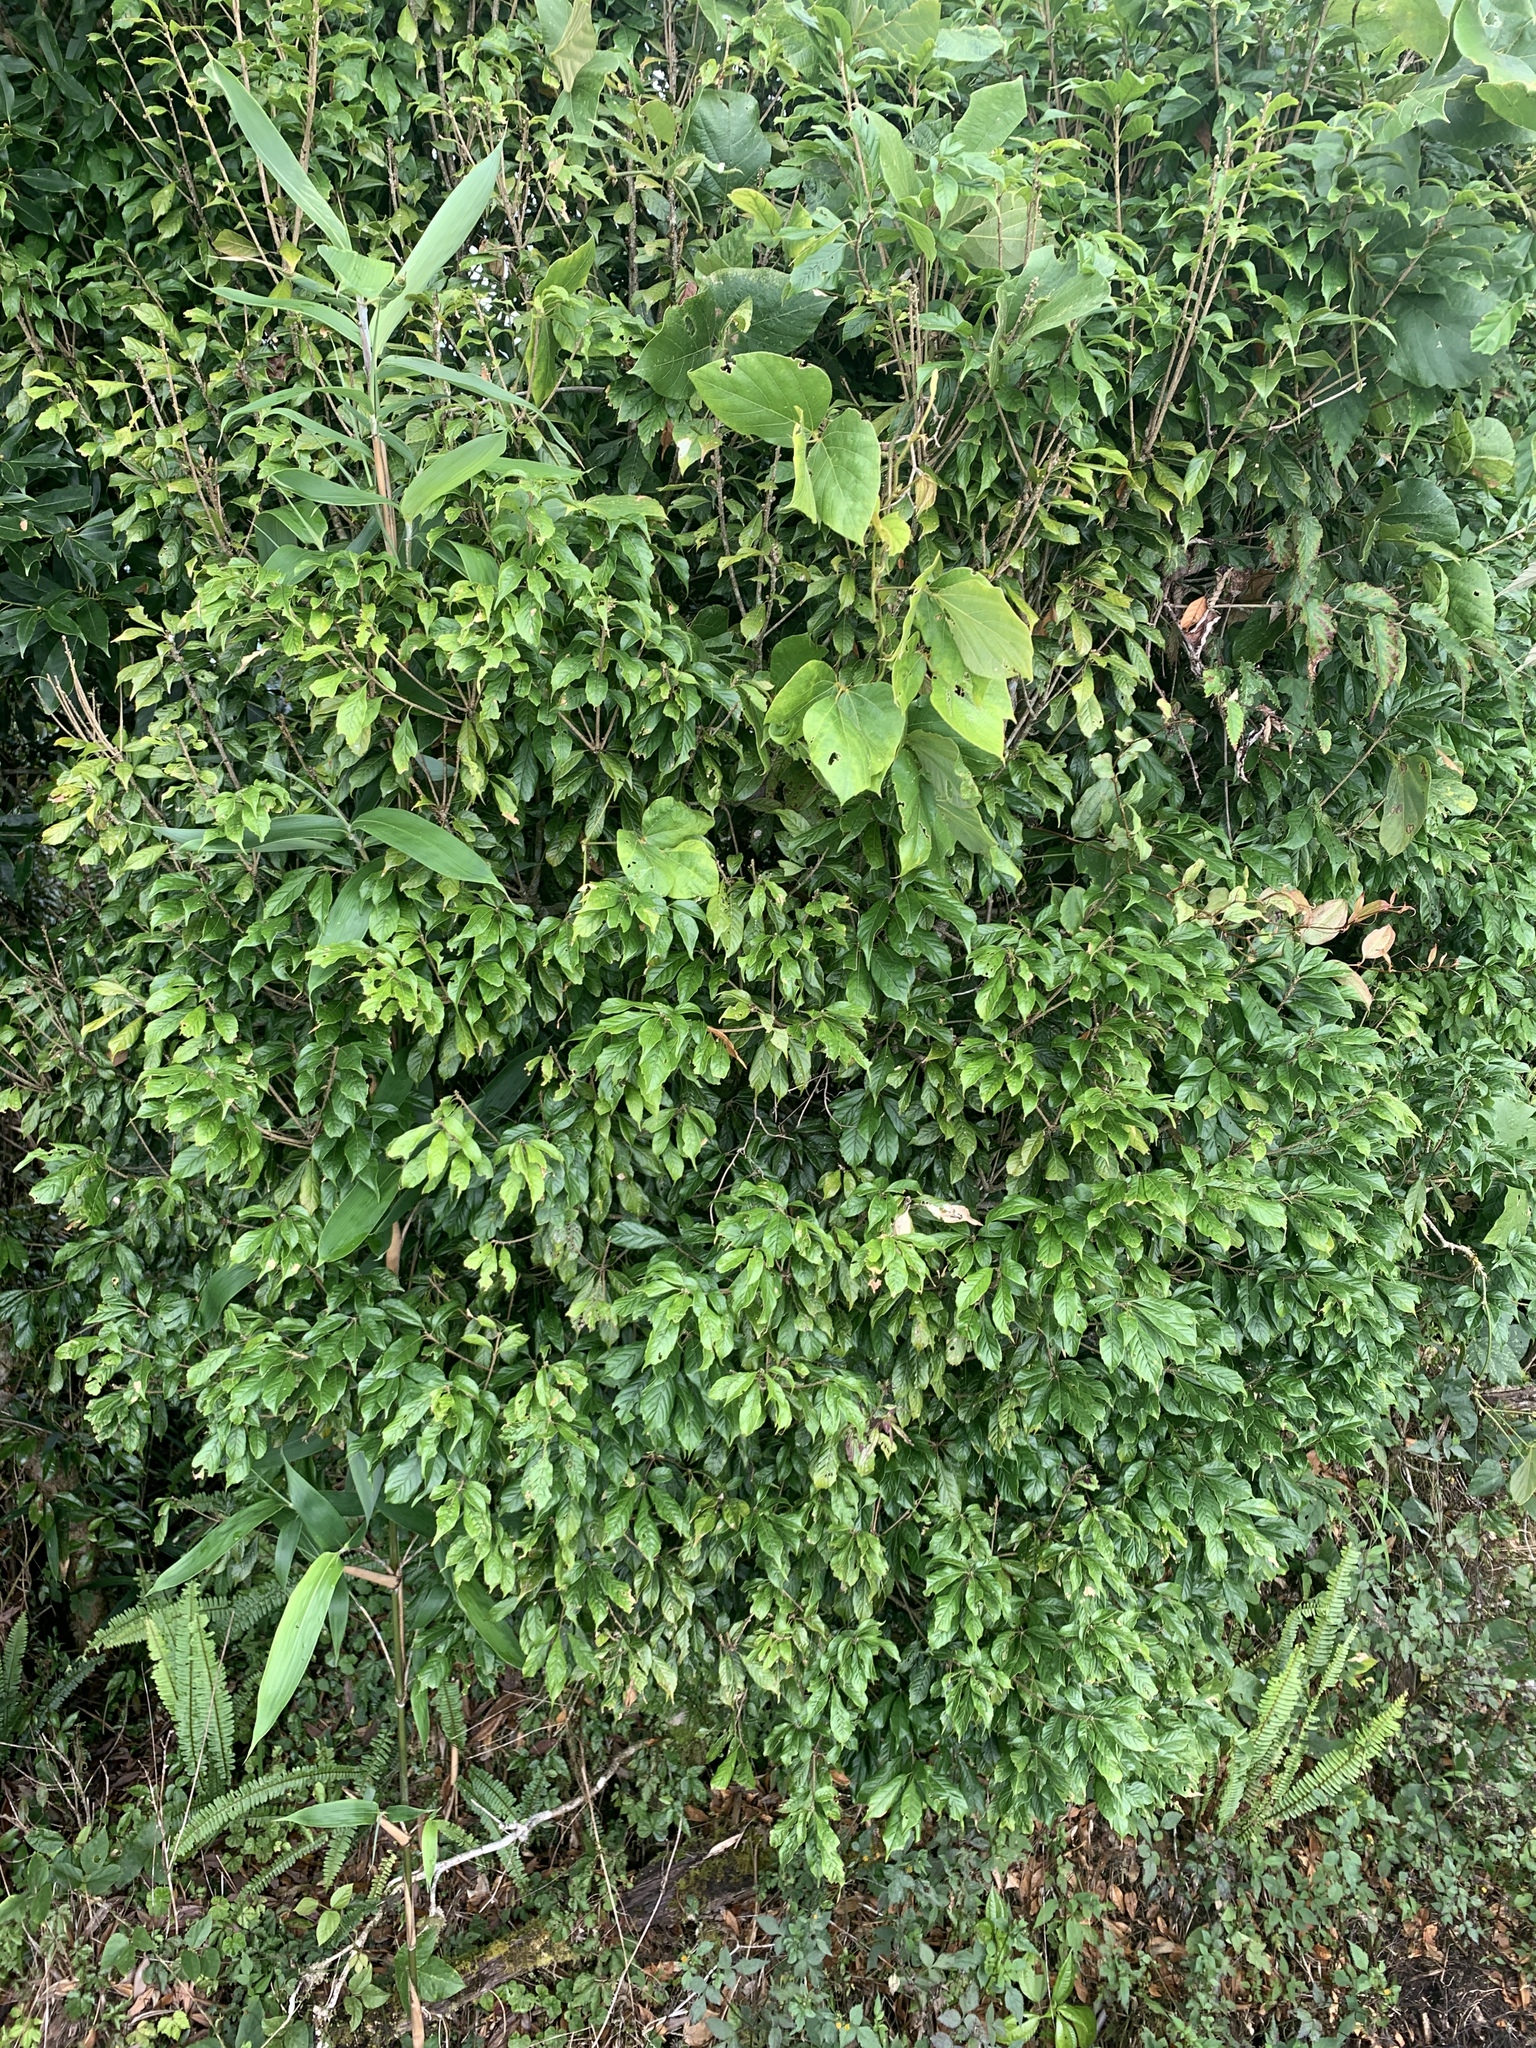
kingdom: Plantae
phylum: Tracheophyta
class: Magnoliopsida
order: Fagales
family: Fagaceae
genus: Lithocarpus
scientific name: Lithocarpus corneus
